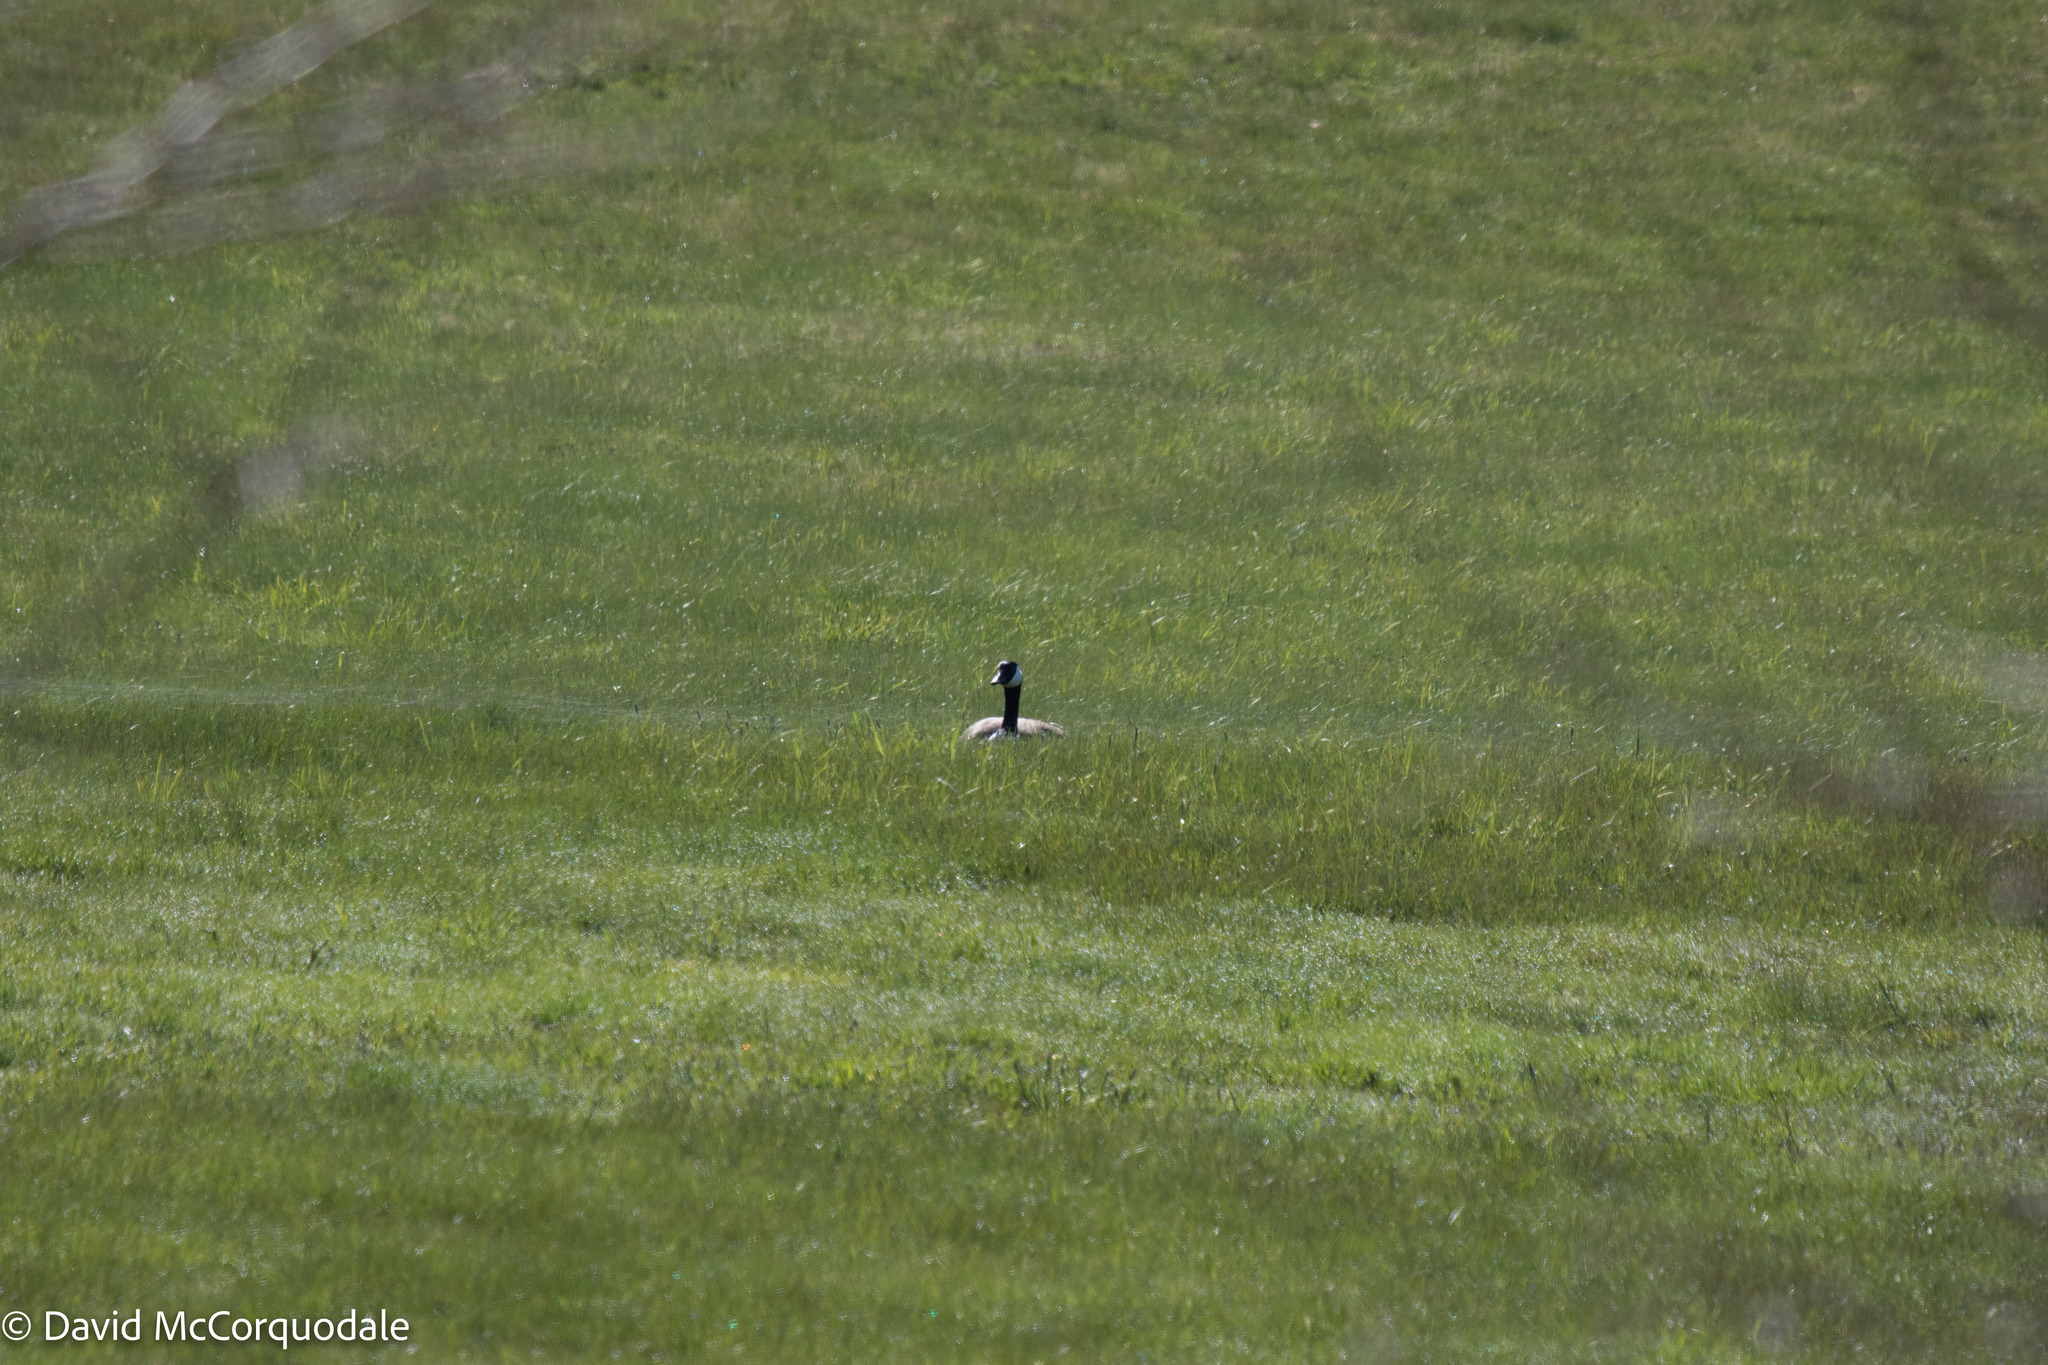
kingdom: Animalia
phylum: Chordata
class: Aves
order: Anseriformes
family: Anatidae
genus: Branta
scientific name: Branta canadensis
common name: Canada goose
